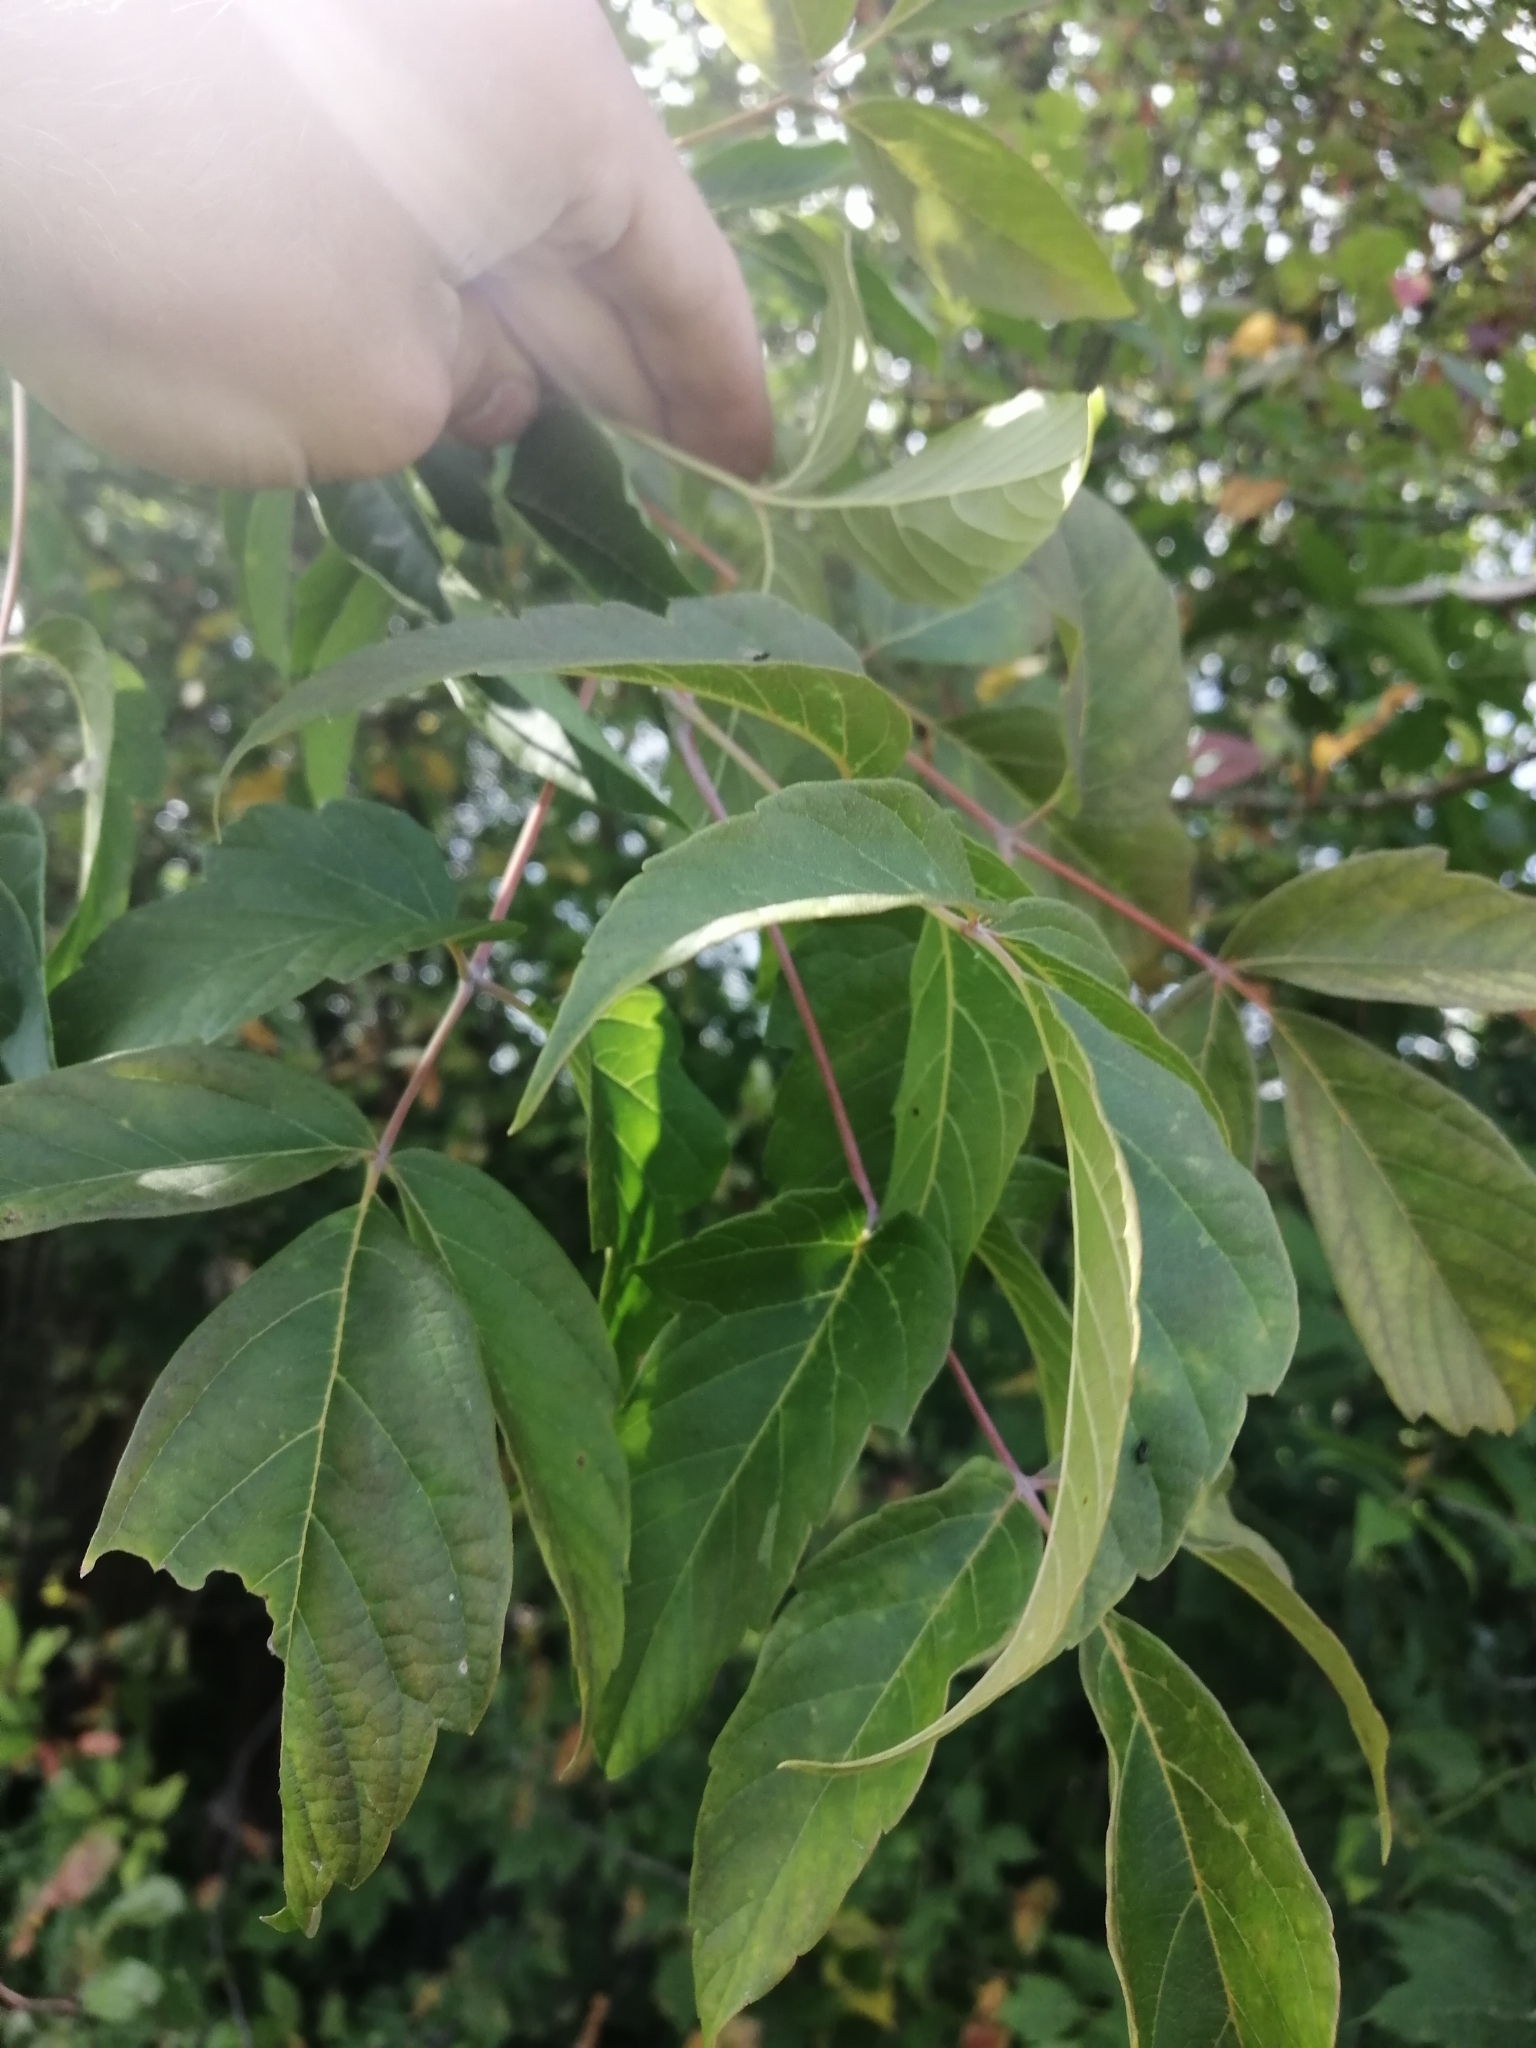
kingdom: Plantae
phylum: Tracheophyta
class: Magnoliopsida
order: Sapindales
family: Sapindaceae
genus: Acer
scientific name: Acer negundo
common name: Ashleaf maple
